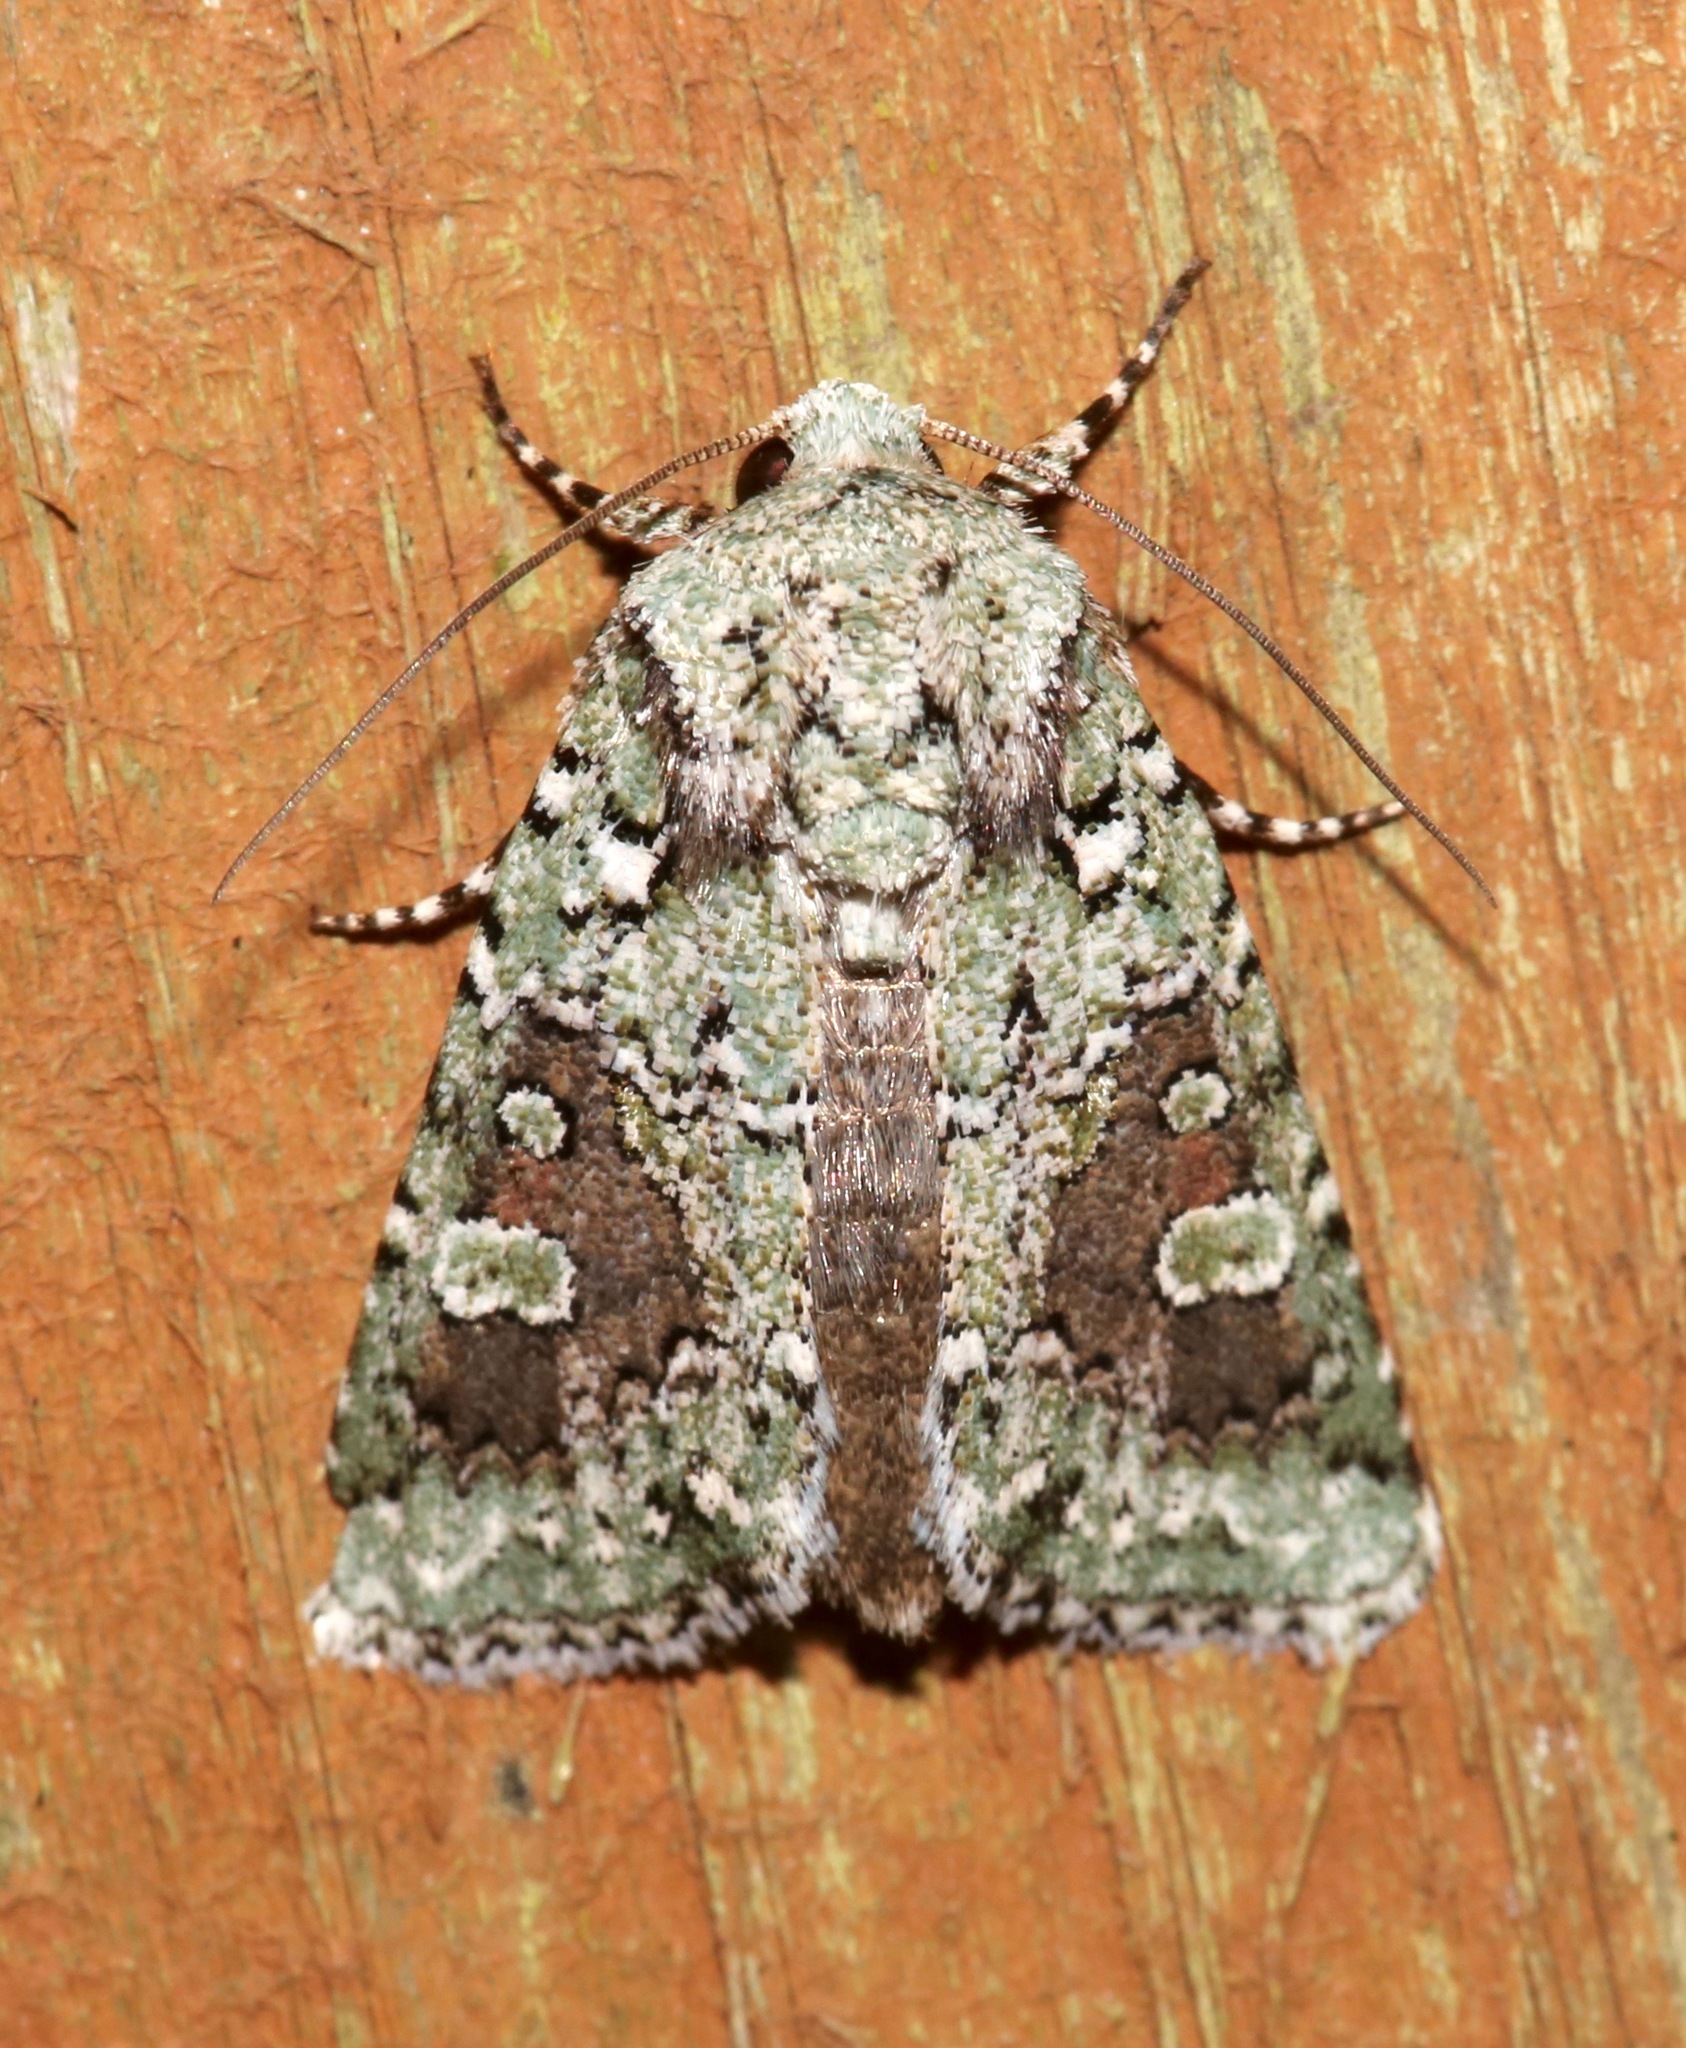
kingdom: Animalia
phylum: Arthropoda
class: Insecta
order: Lepidoptera
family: Noctuidae
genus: Lacinipolia
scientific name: Lacinipolia laudabilis
